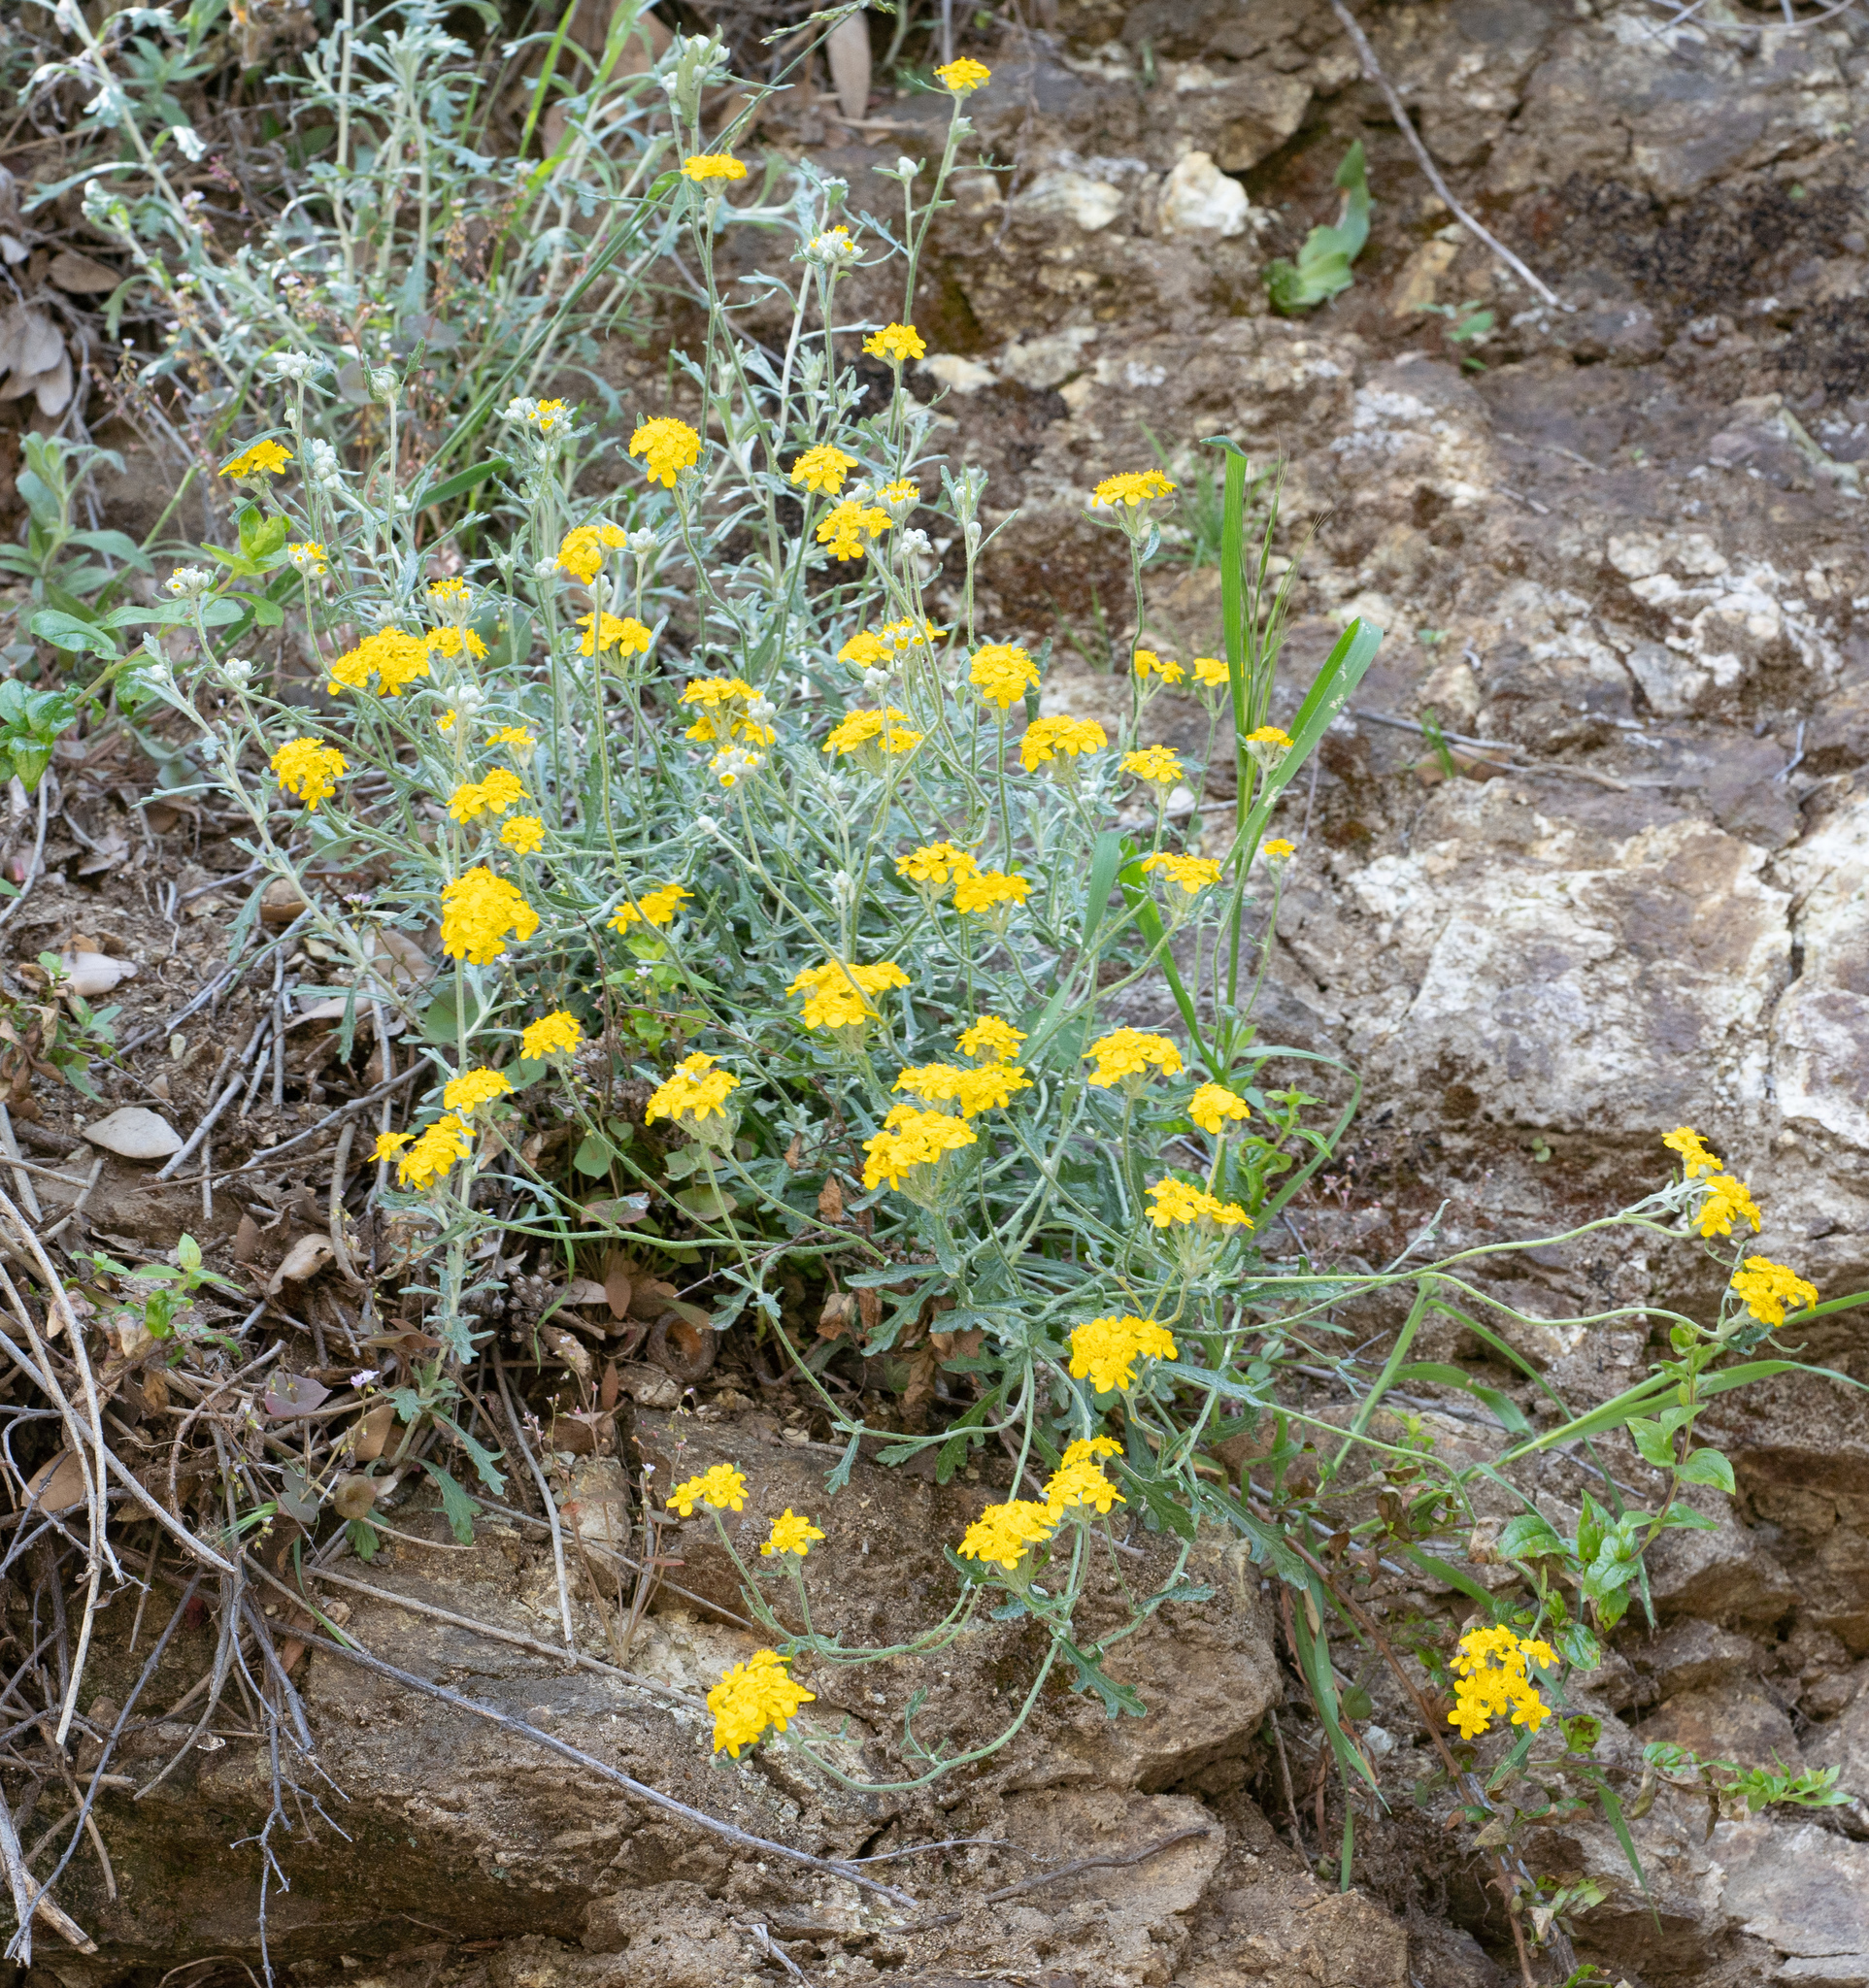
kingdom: Plantae
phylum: Tracheophyta
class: Magnoliopsida
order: Asterales
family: Asteraceae
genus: Eriophyllum
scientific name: Eriophyllum confertiflorum
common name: Golden-yarrow
